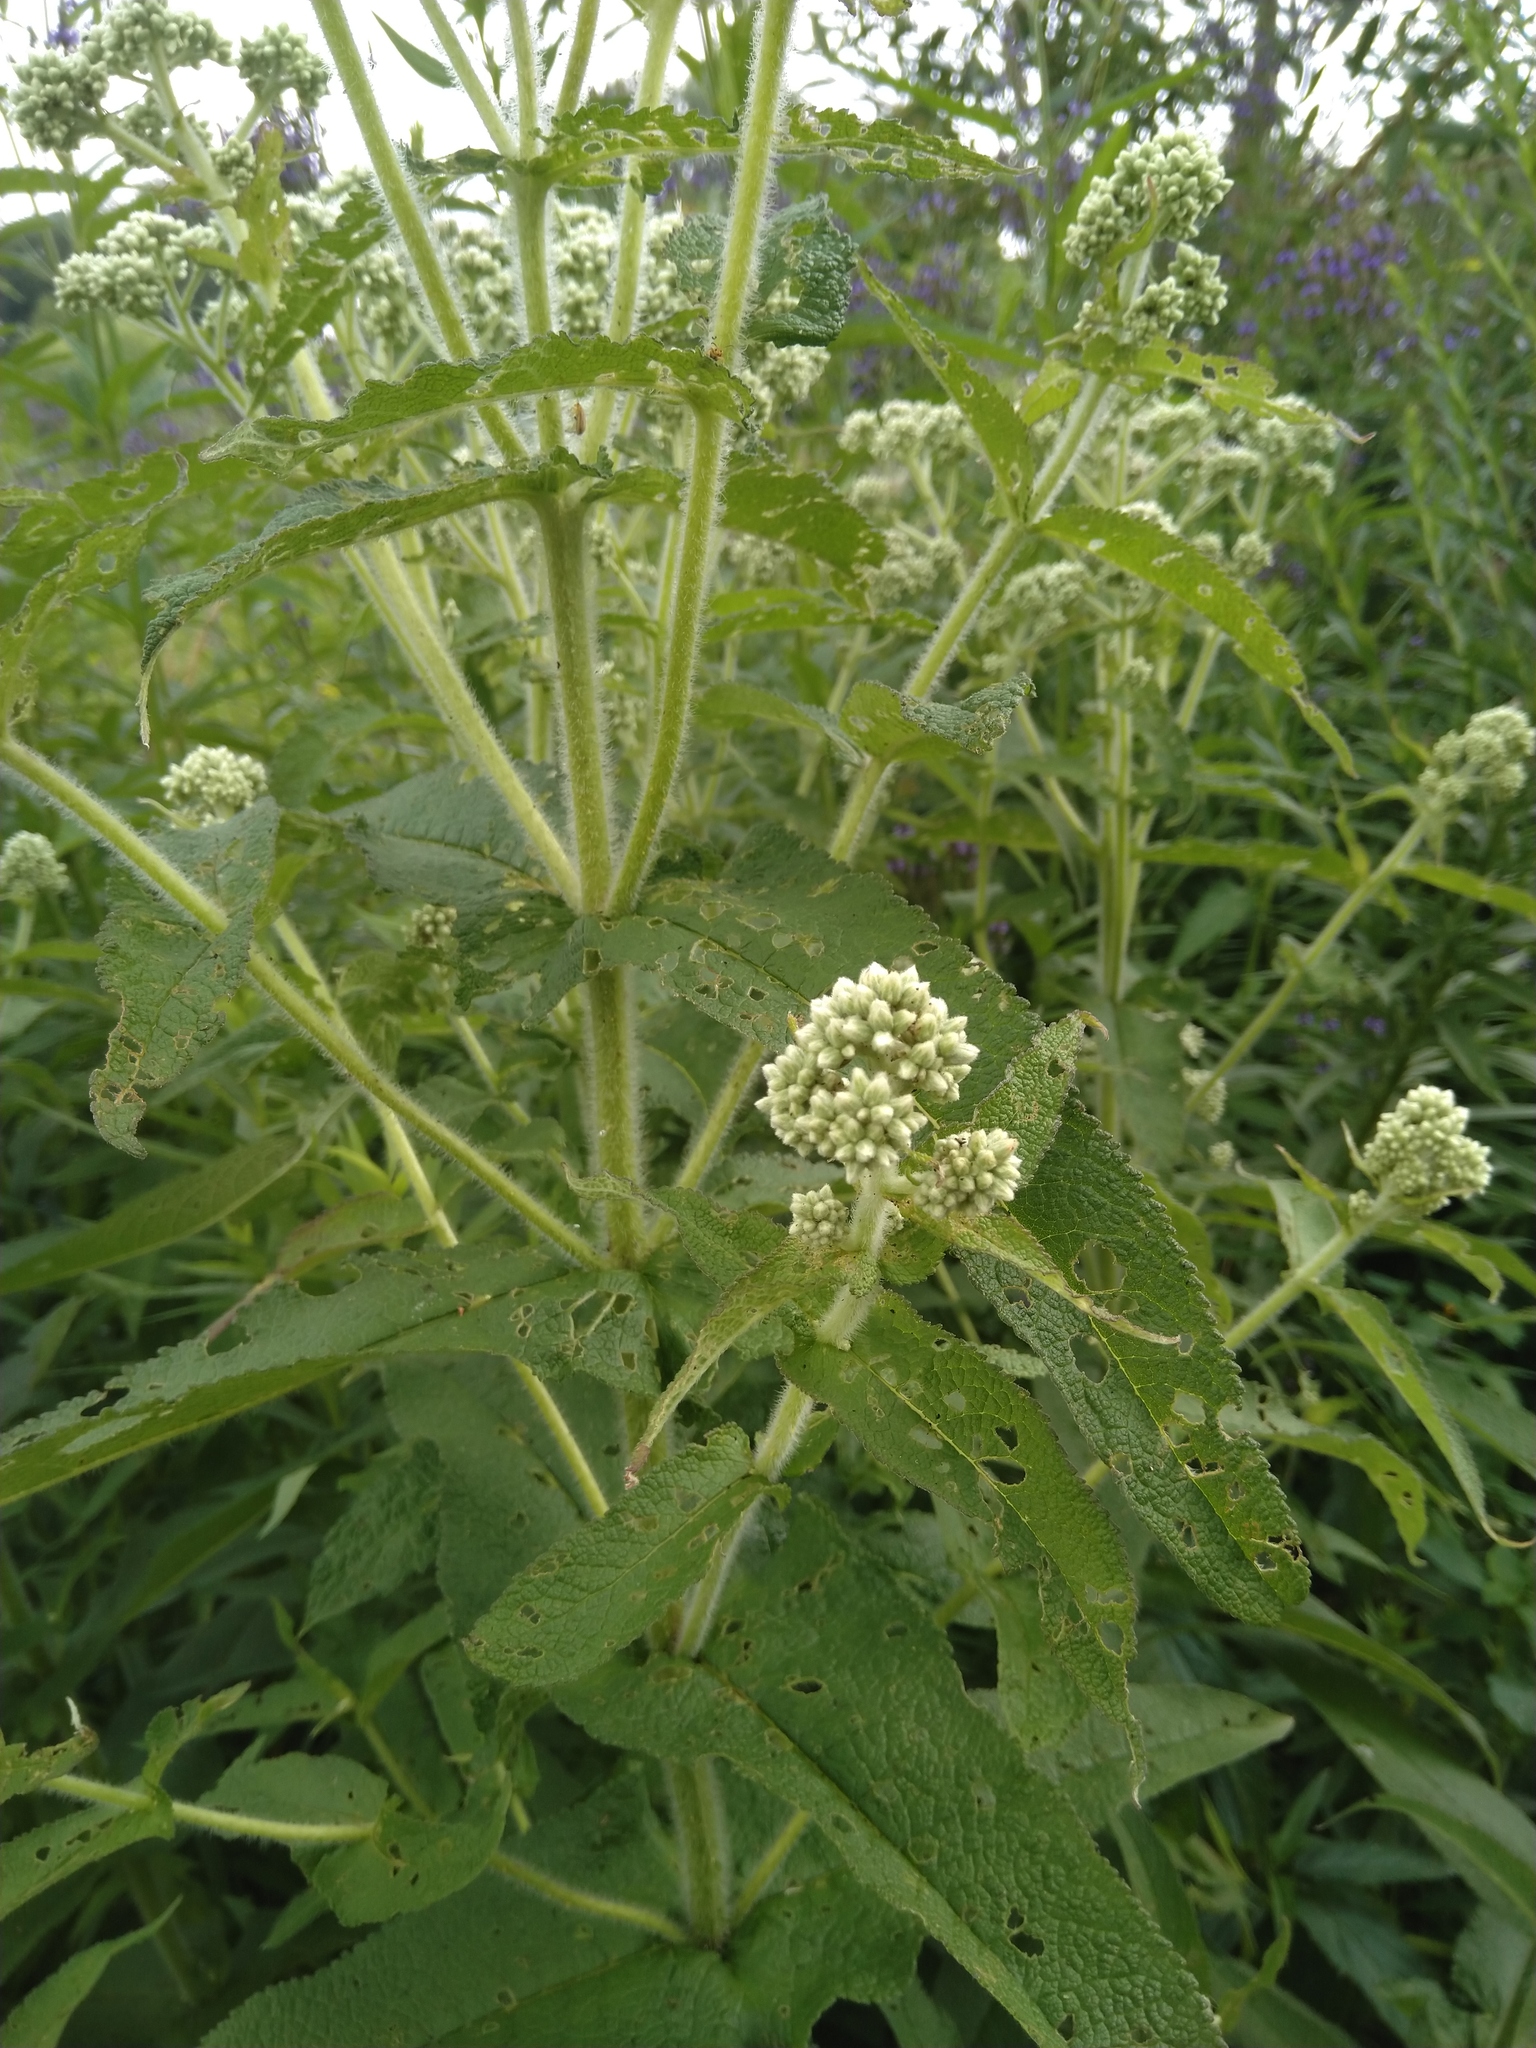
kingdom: Plantae
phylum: Tracheophyta
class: Magnoliopsida
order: Asterales
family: Asteraceae
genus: Eupatorium
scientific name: Eupatorium perfoliatum
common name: Boneset
